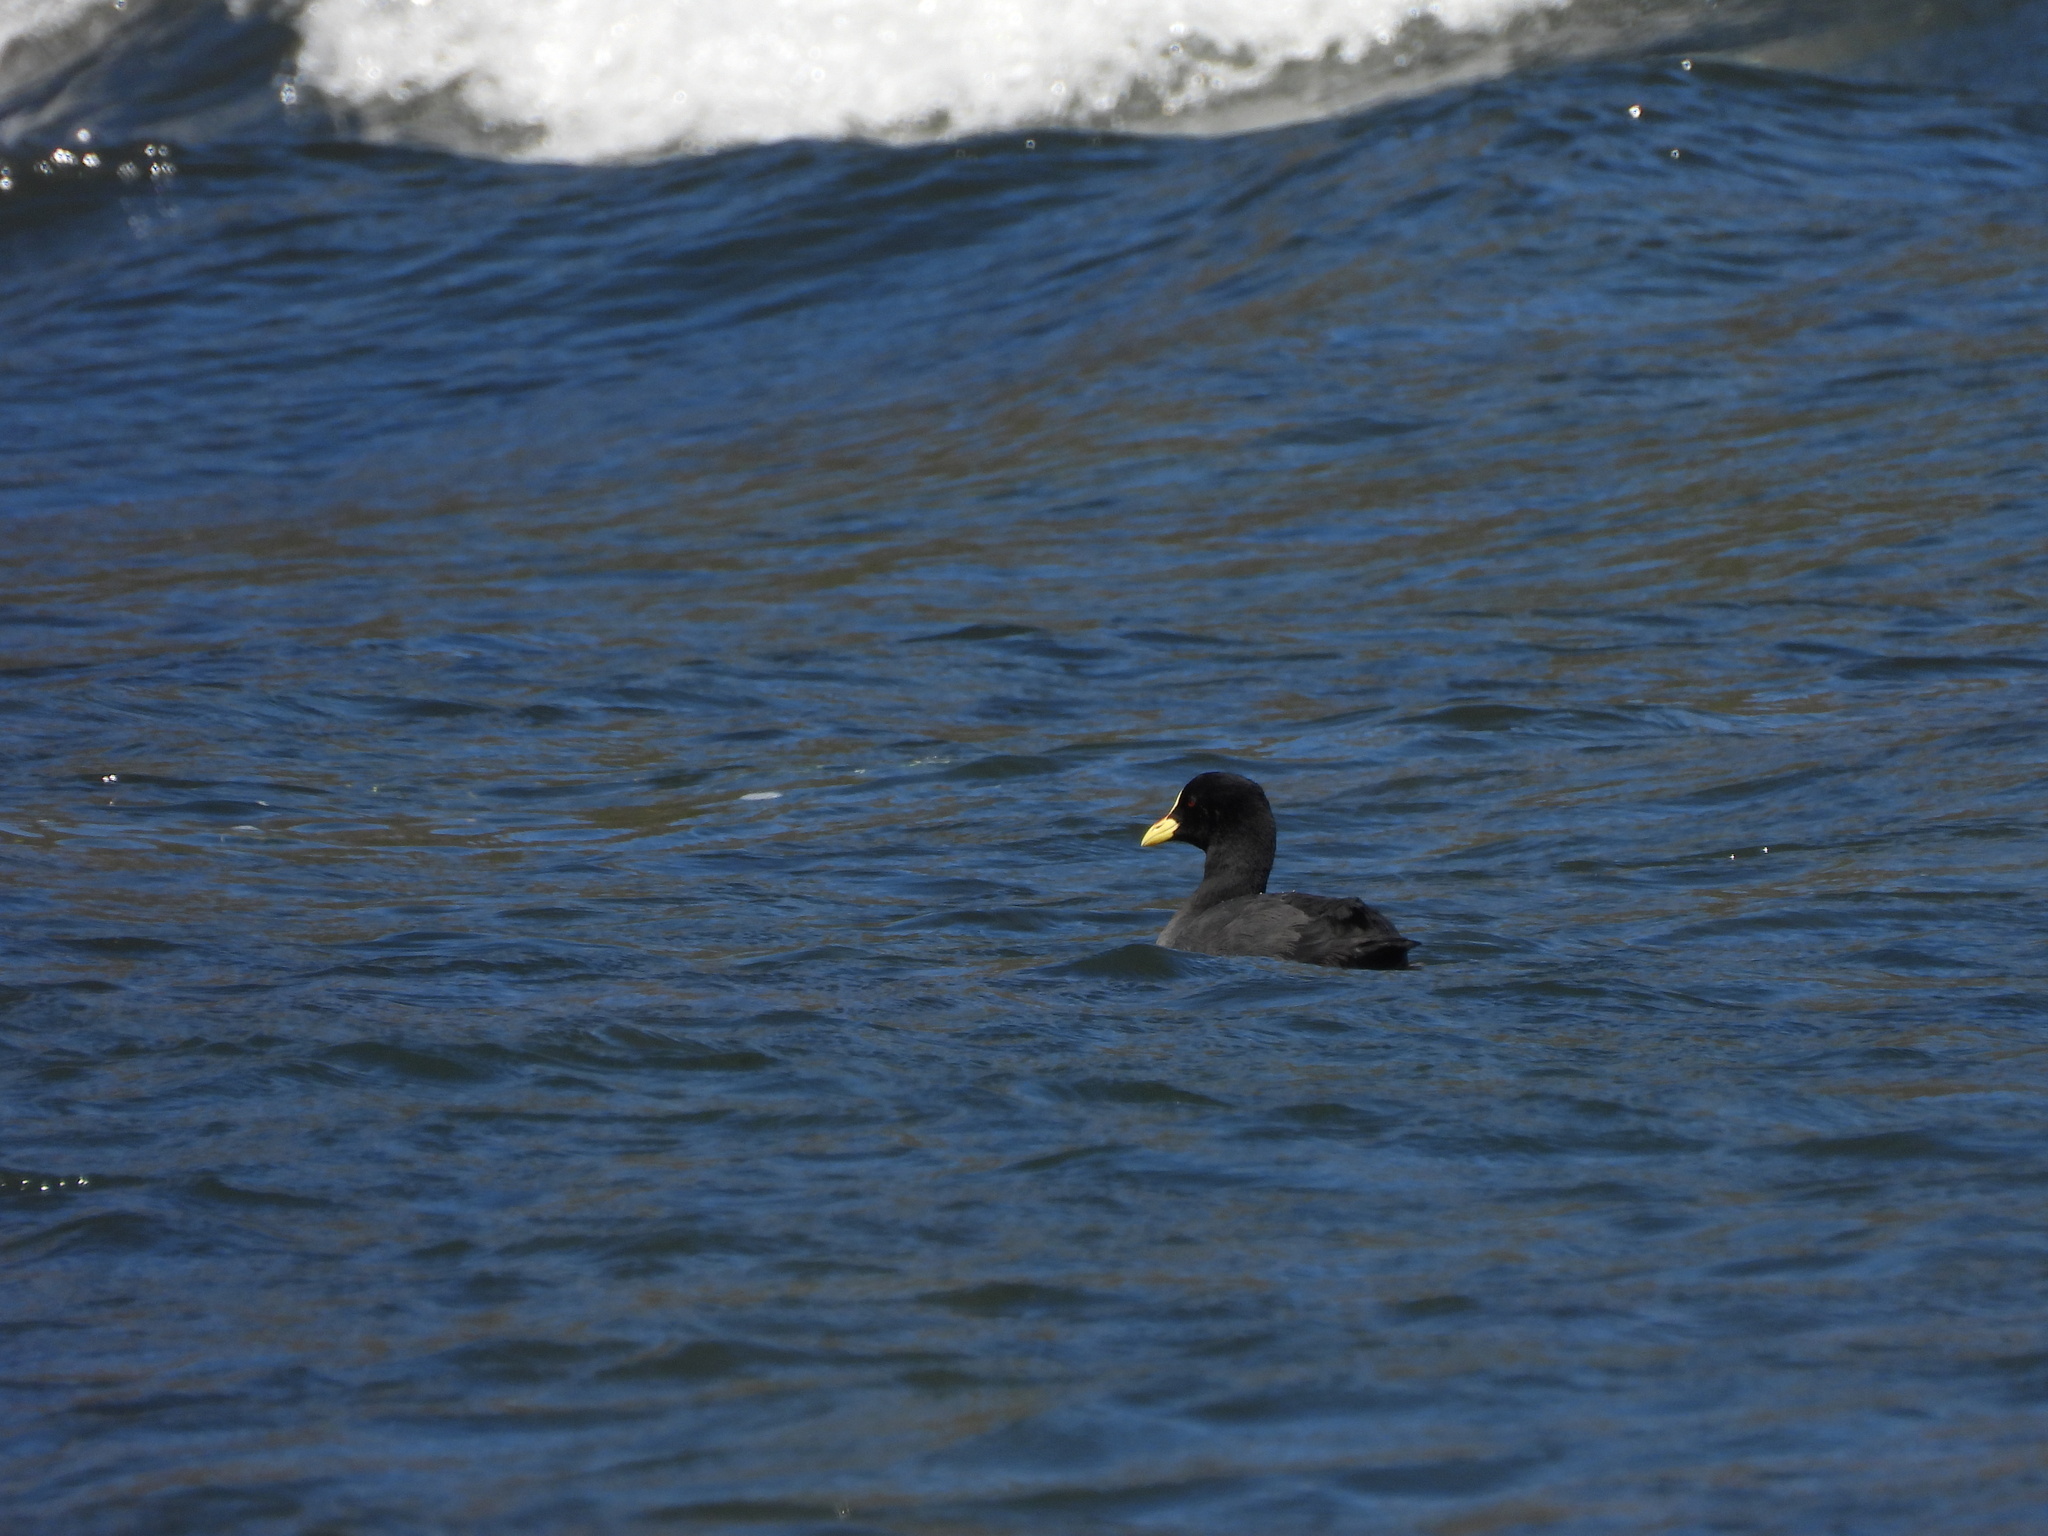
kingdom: Animalia
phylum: Chordata
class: Aves
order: Gruiformes
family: Rallidae
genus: Fulica
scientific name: Fulica armillata
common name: Red-gartered coot
